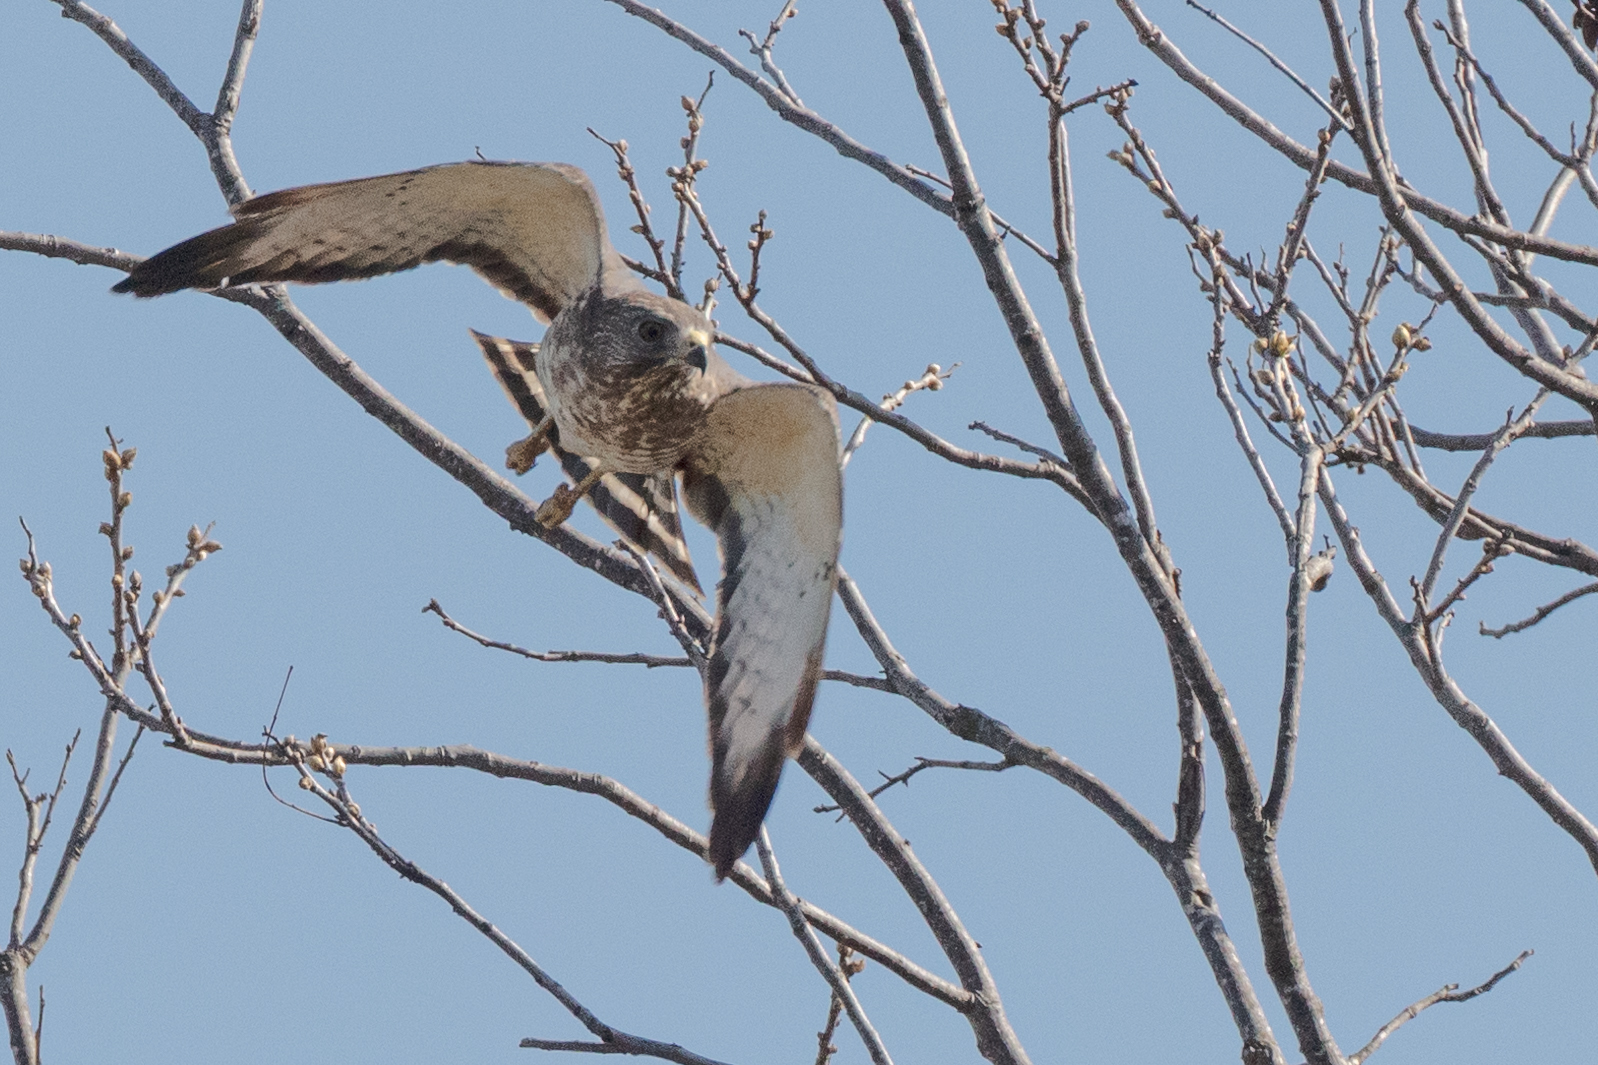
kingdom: Animalia
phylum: Chordata
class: Aves
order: Accipitriformes
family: Accipitridae
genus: Buteo
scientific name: Buteo platypterus
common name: Broad-winged hawk
